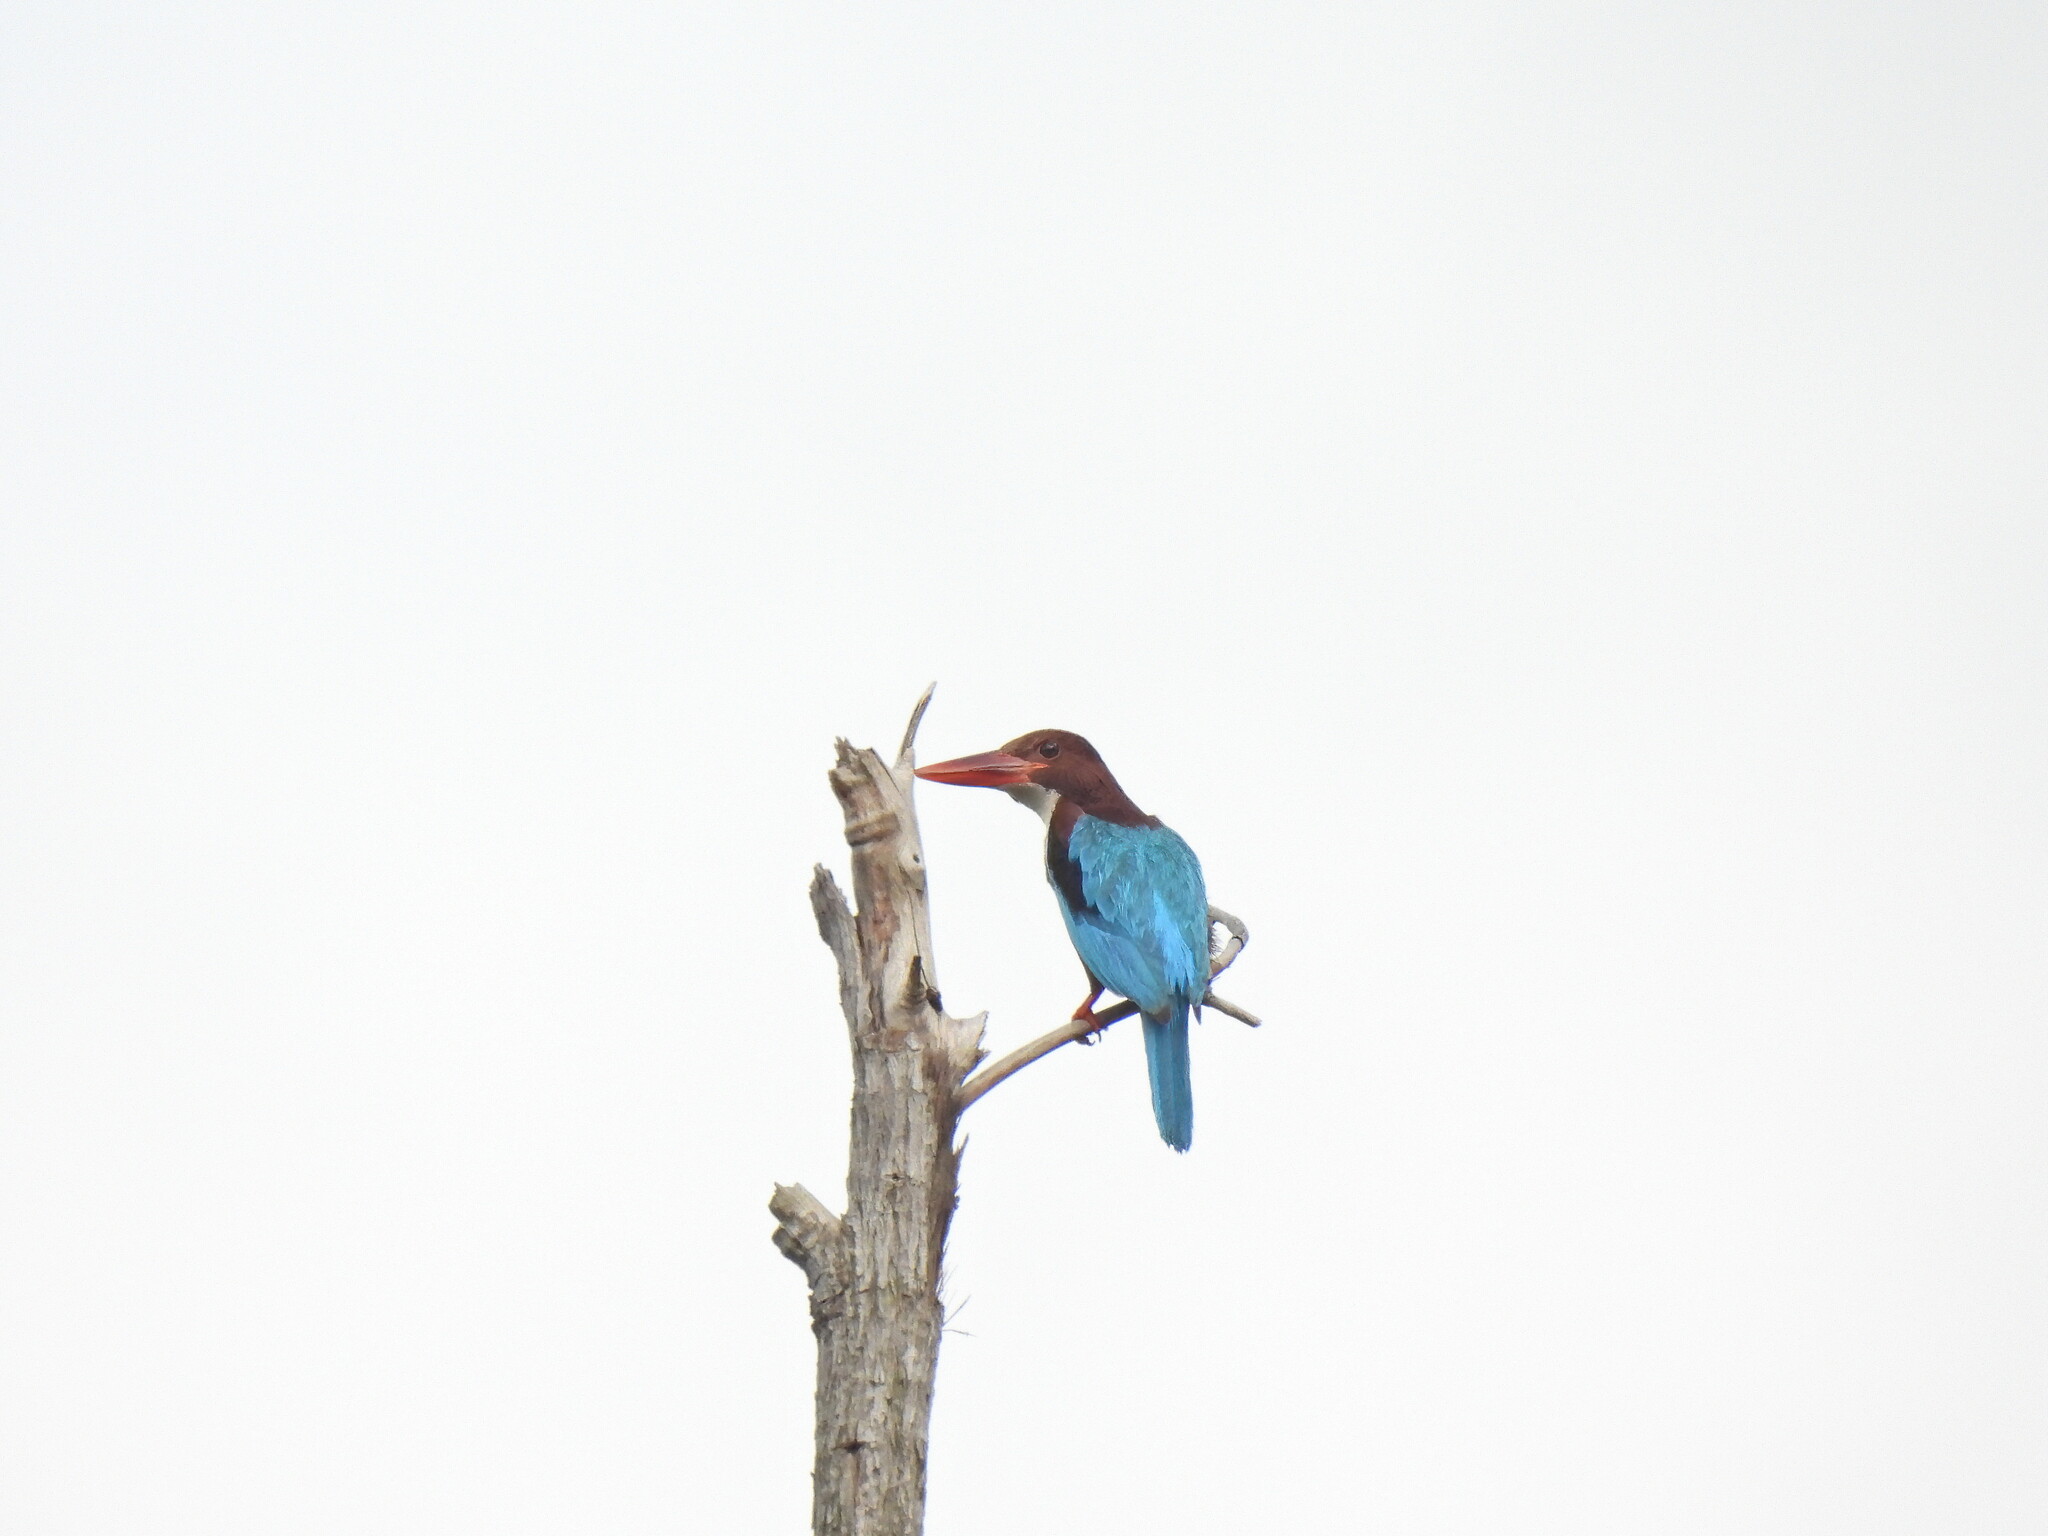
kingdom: Animalia
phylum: Chordata
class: Aves
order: Coraciiformes
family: Alcedinidae
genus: Halcyon
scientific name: Halcyon smyrnensis
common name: White-throated kingfisher
